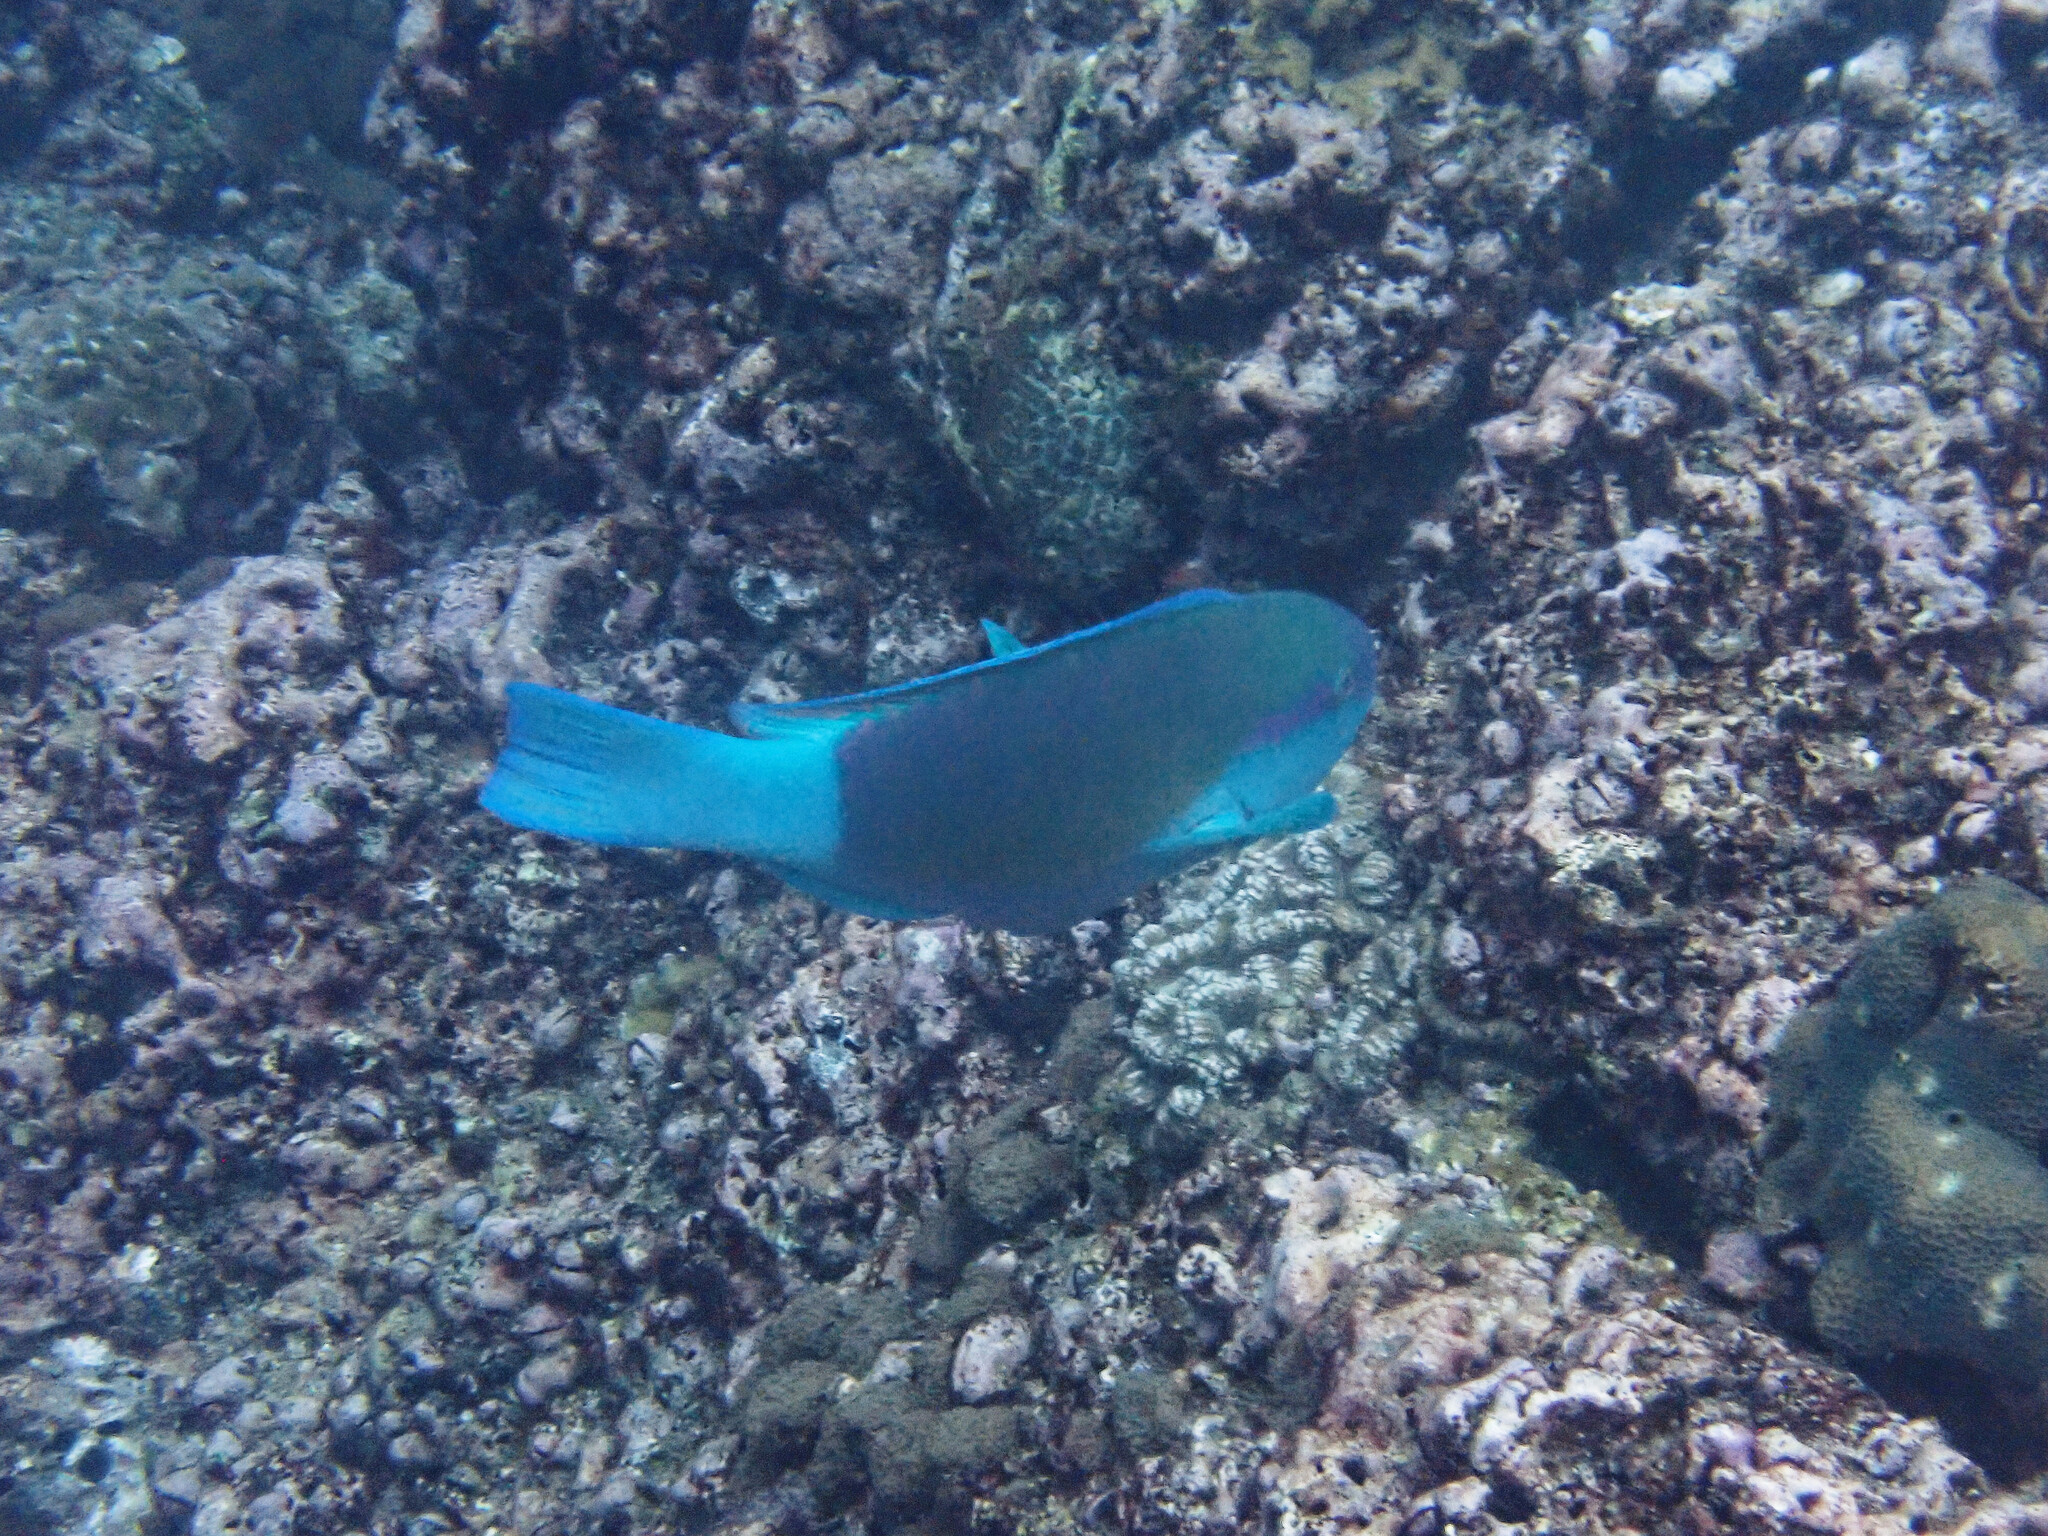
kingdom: Animalia
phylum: Chordata
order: Perciformes
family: Scaridae
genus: Chlorurus
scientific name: Chlorurus sordidus
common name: Bullethead parrotfish
